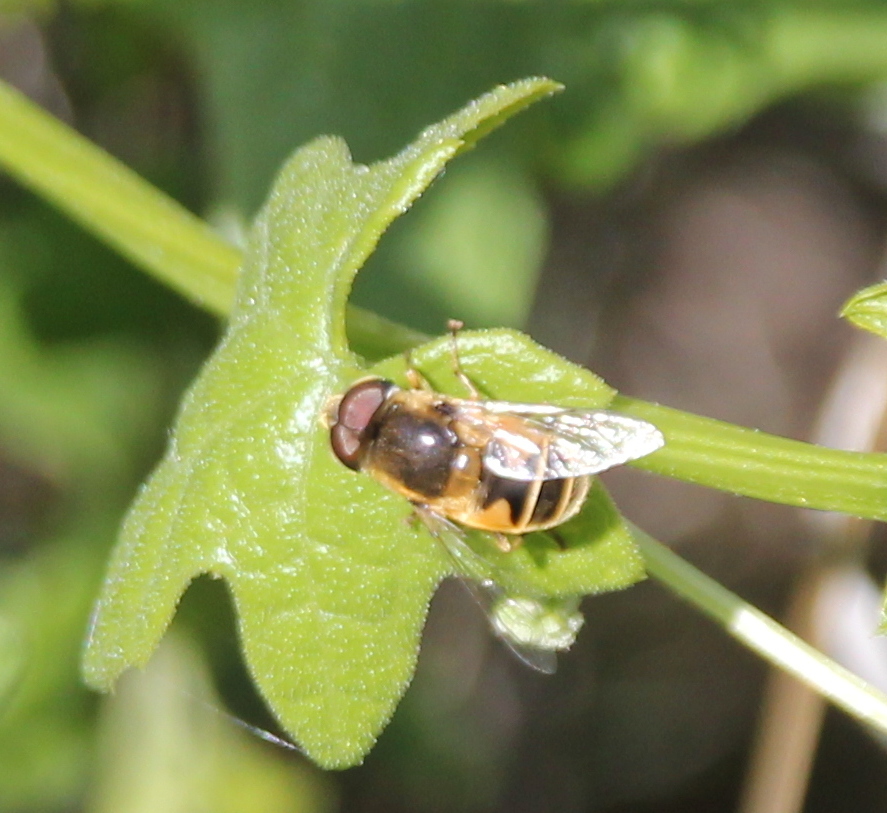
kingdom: Animalia
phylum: Arthropoda
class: Insecta
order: Diptera
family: Syrphidae
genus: Eoseristalis
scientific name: Eoseristalis
